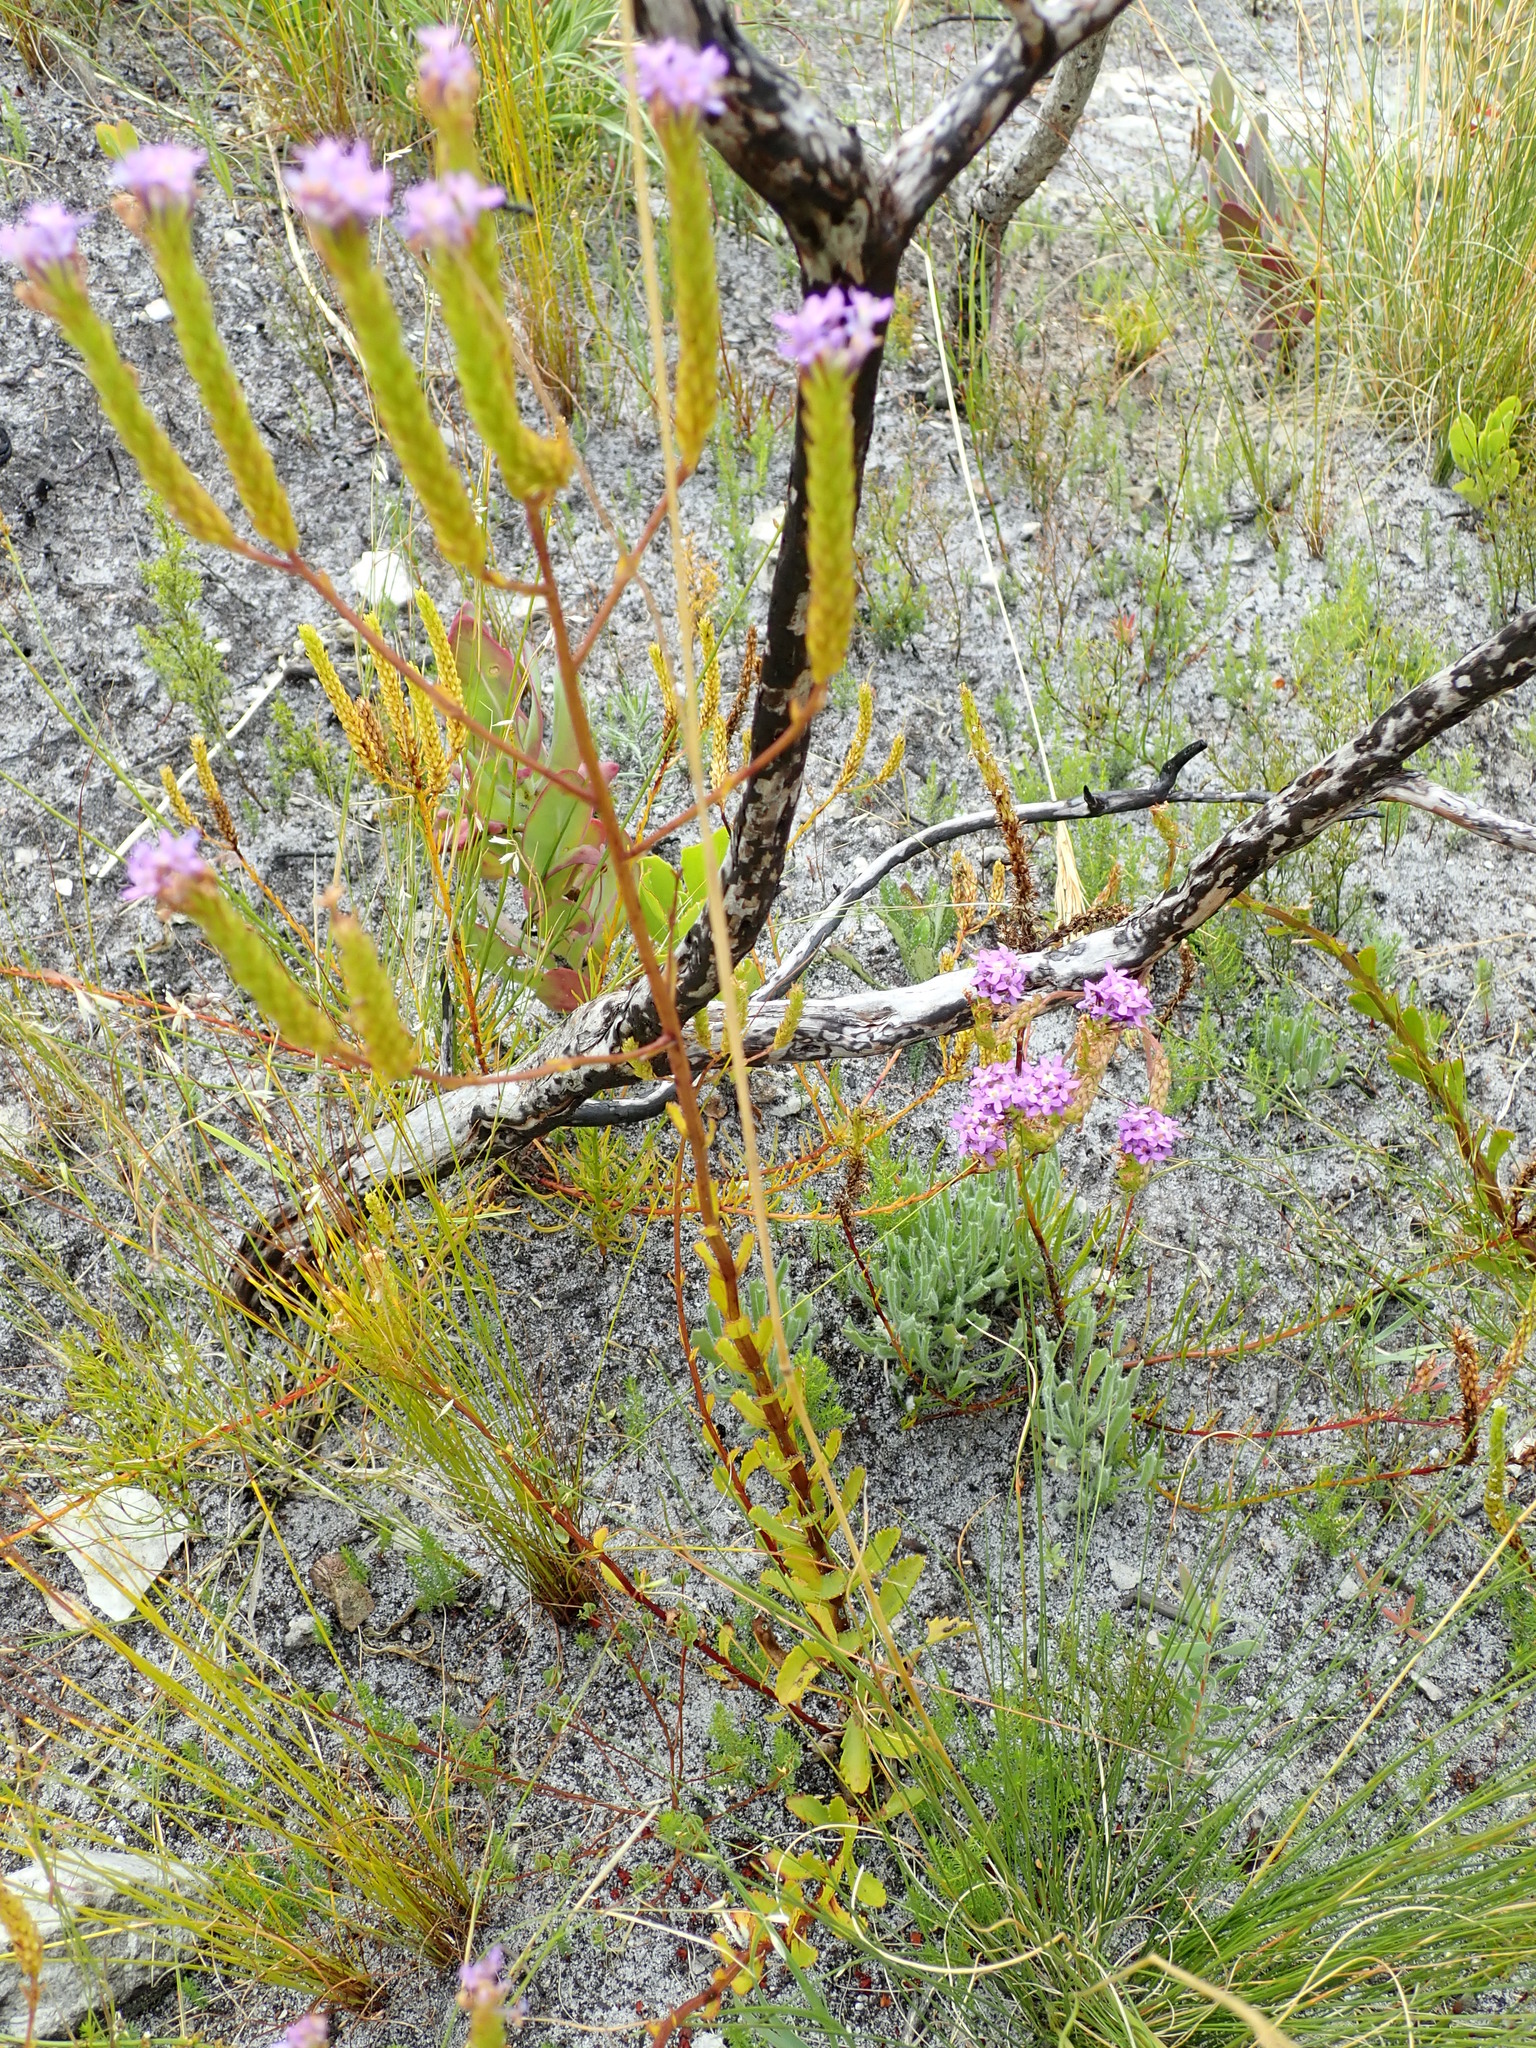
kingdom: Plantae
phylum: Tracheophyta
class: Magnoliopsida
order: Lamiales
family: Scrophulariaceae
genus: Pseudoselago
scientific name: Pseudoselago verbenacea
